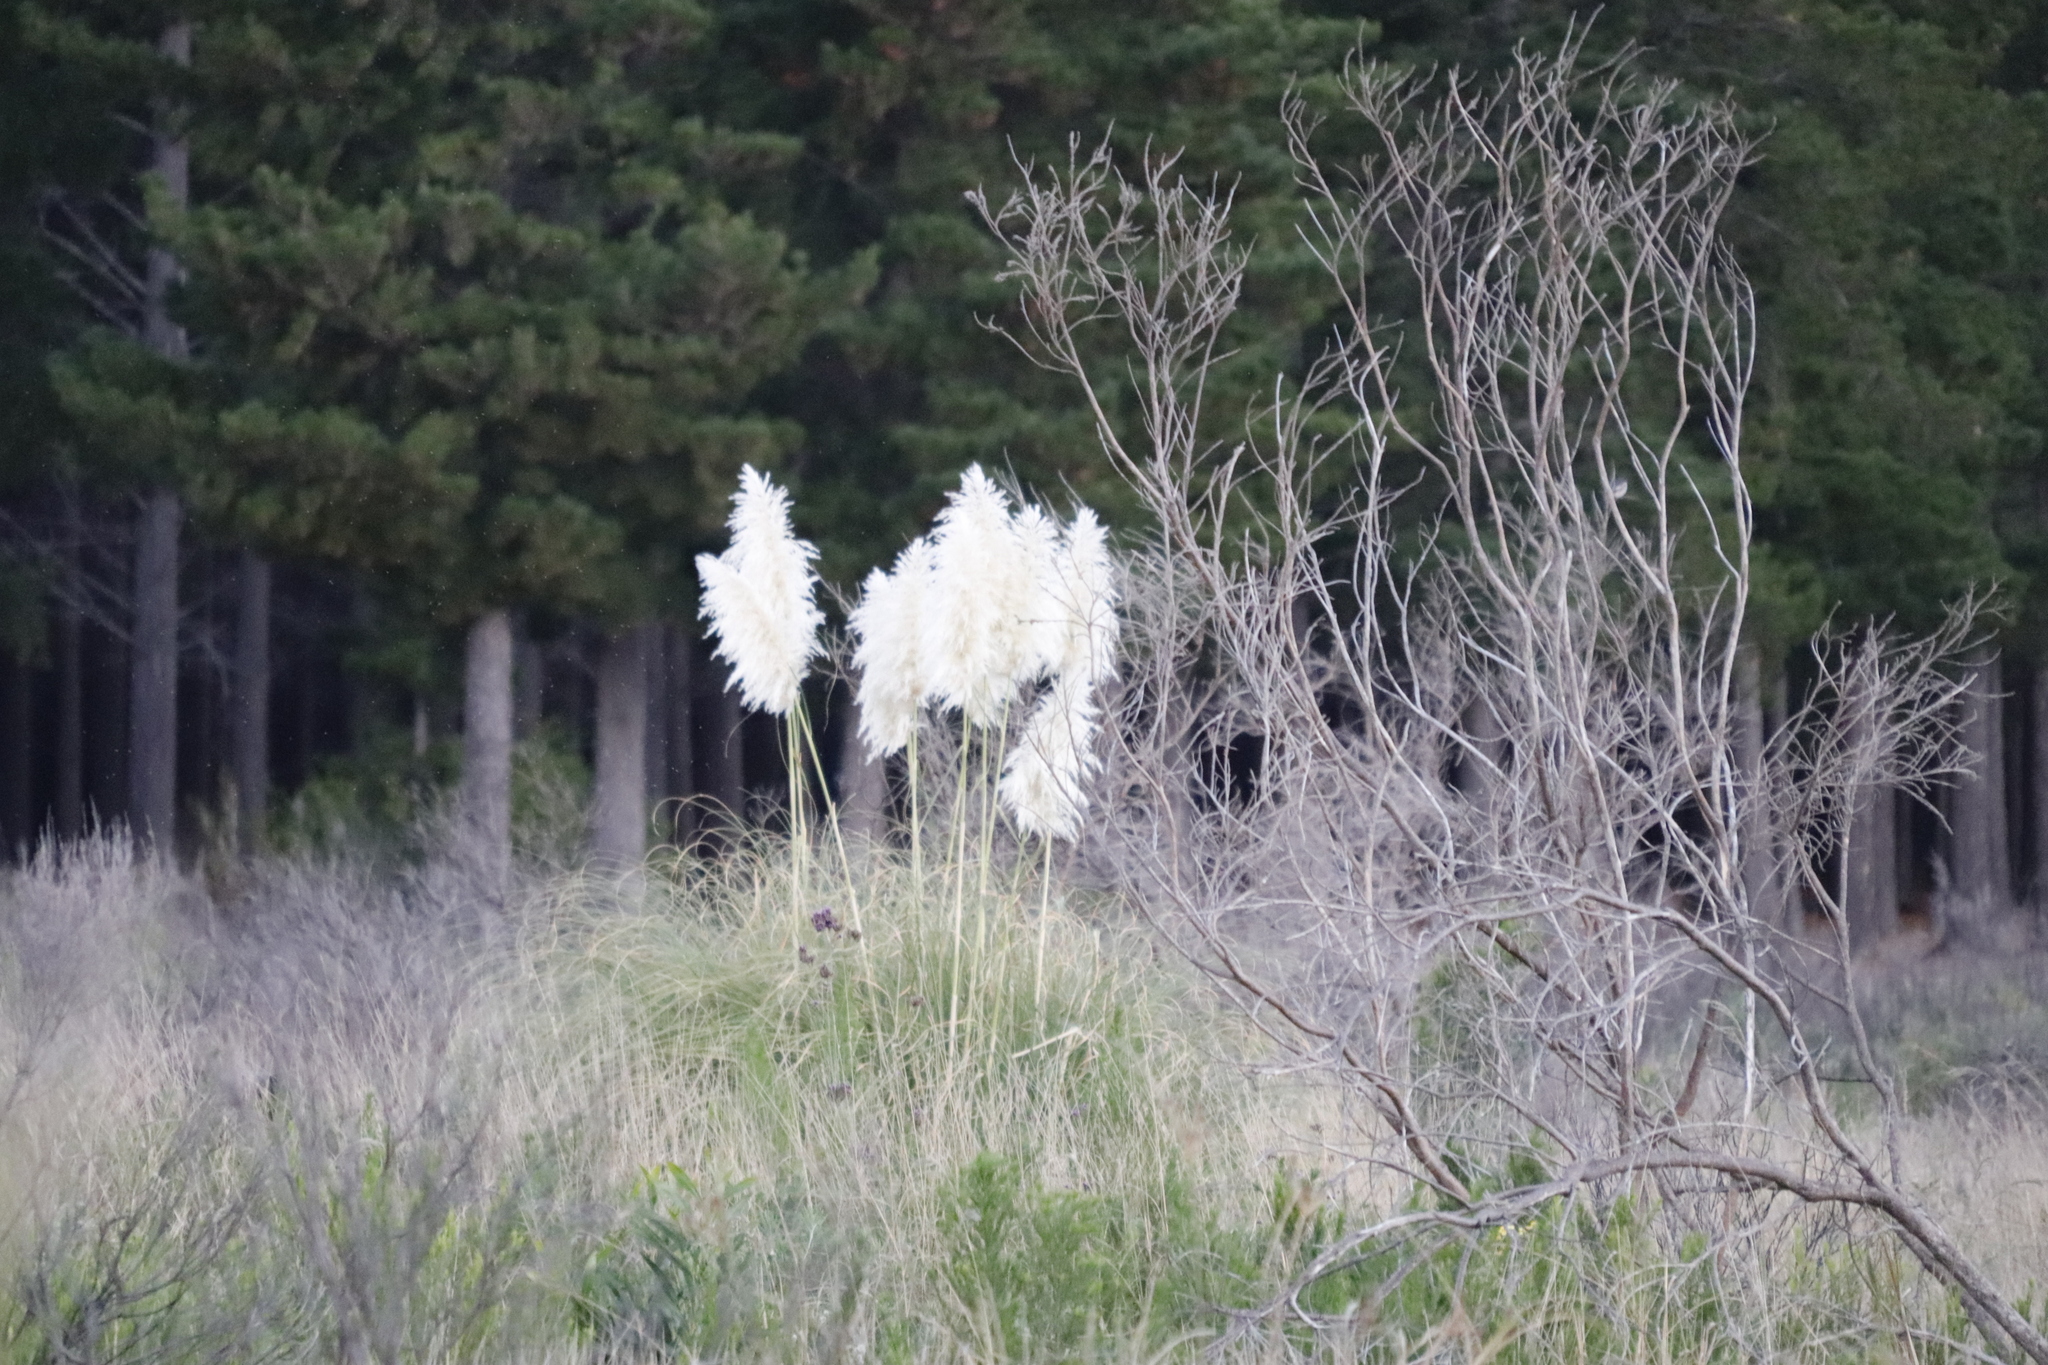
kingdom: Plantae
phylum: Tracheophyta
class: Liliopsida
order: Poales
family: Poaceae
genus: Cortaderia
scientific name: Cortaderia selloana
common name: Uruguayan pampas grass
